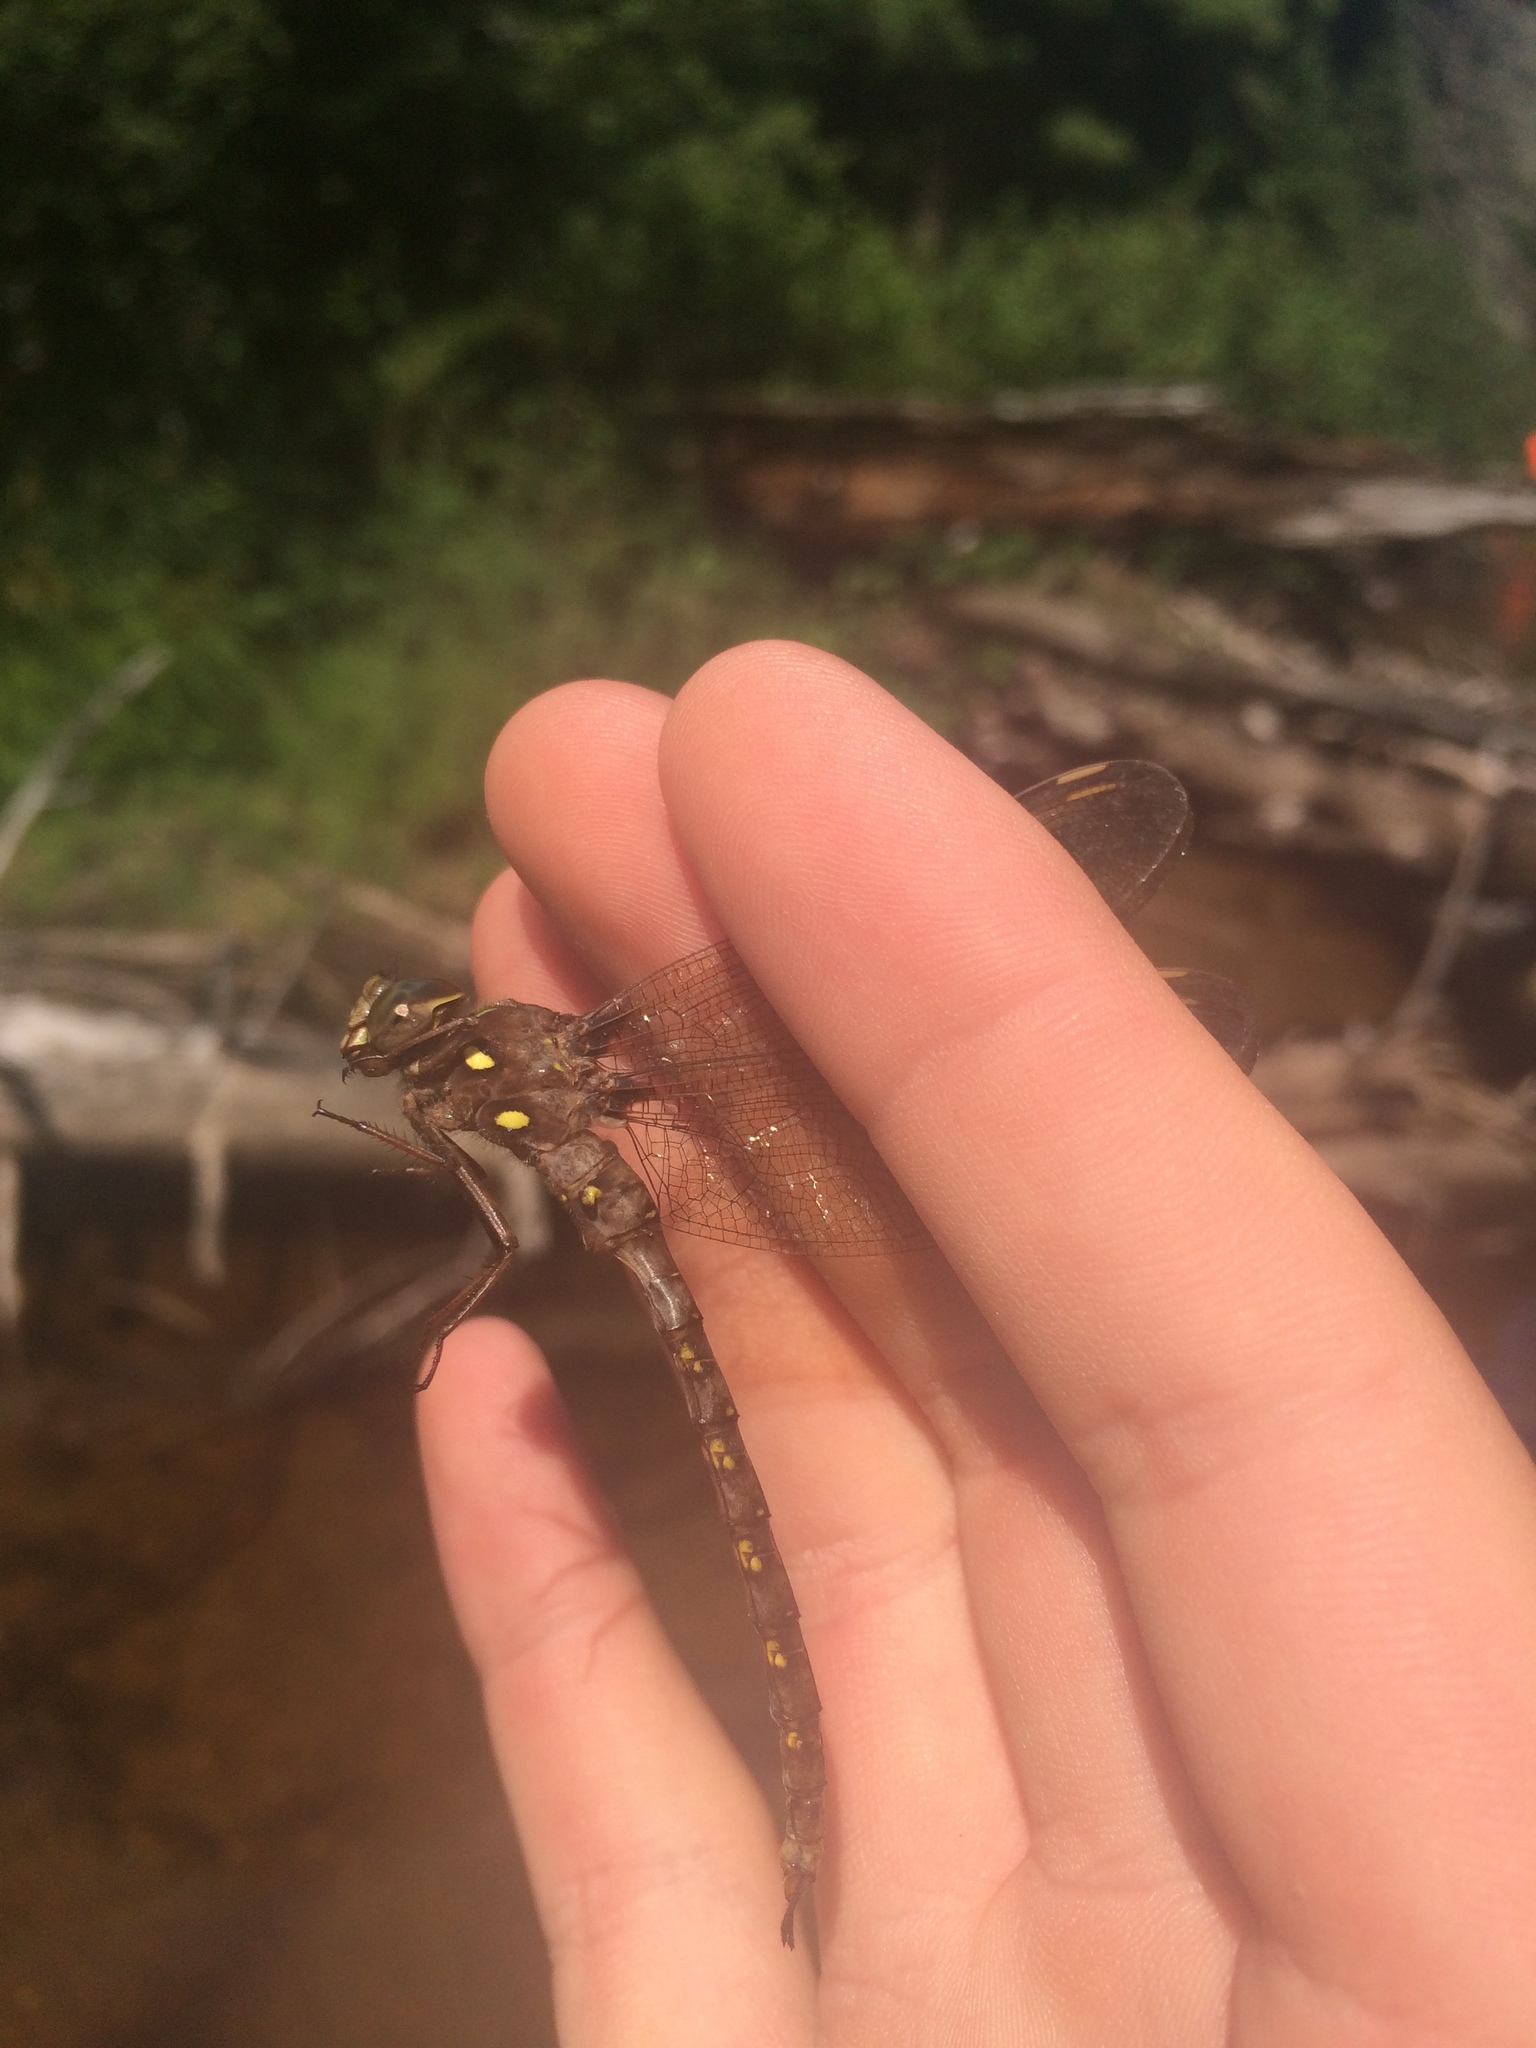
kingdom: Animalia
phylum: Arthropoda
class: Insecta
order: Odonata
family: Aeshnidae
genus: Boyeria
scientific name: Boyeria vinosa
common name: Fawn darner
